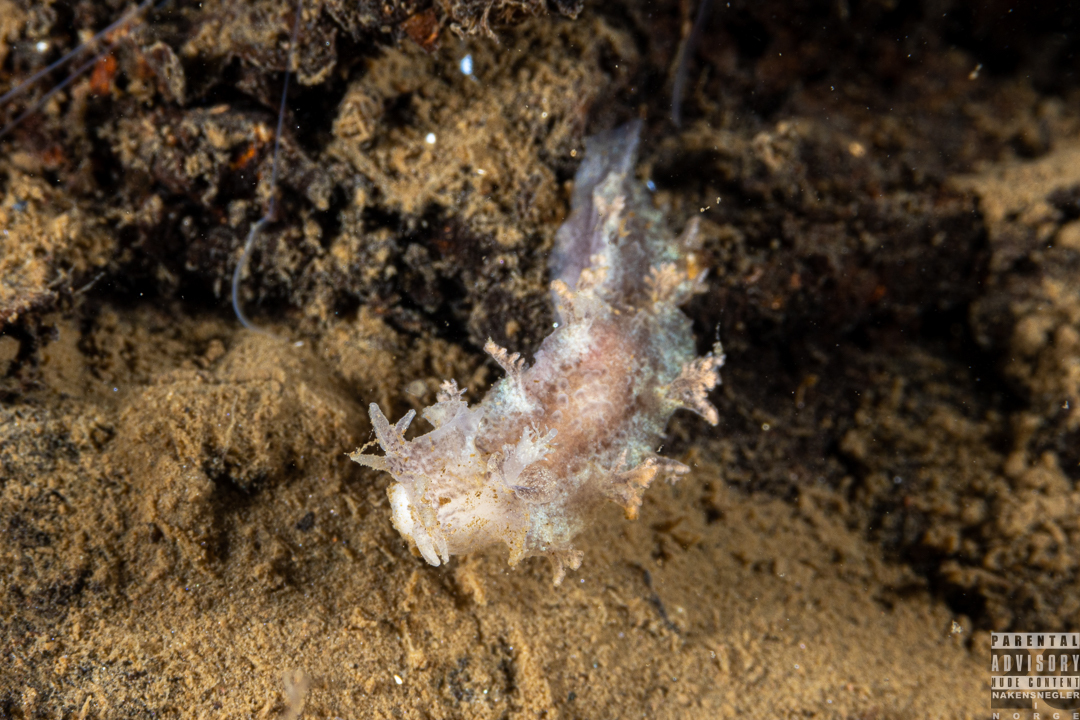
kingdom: Animalia
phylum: Mollusca
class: Gastropoda
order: Nudibranchia
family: Tritoniidae
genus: Duvaucelia
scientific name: Duvaucelia plebeia
